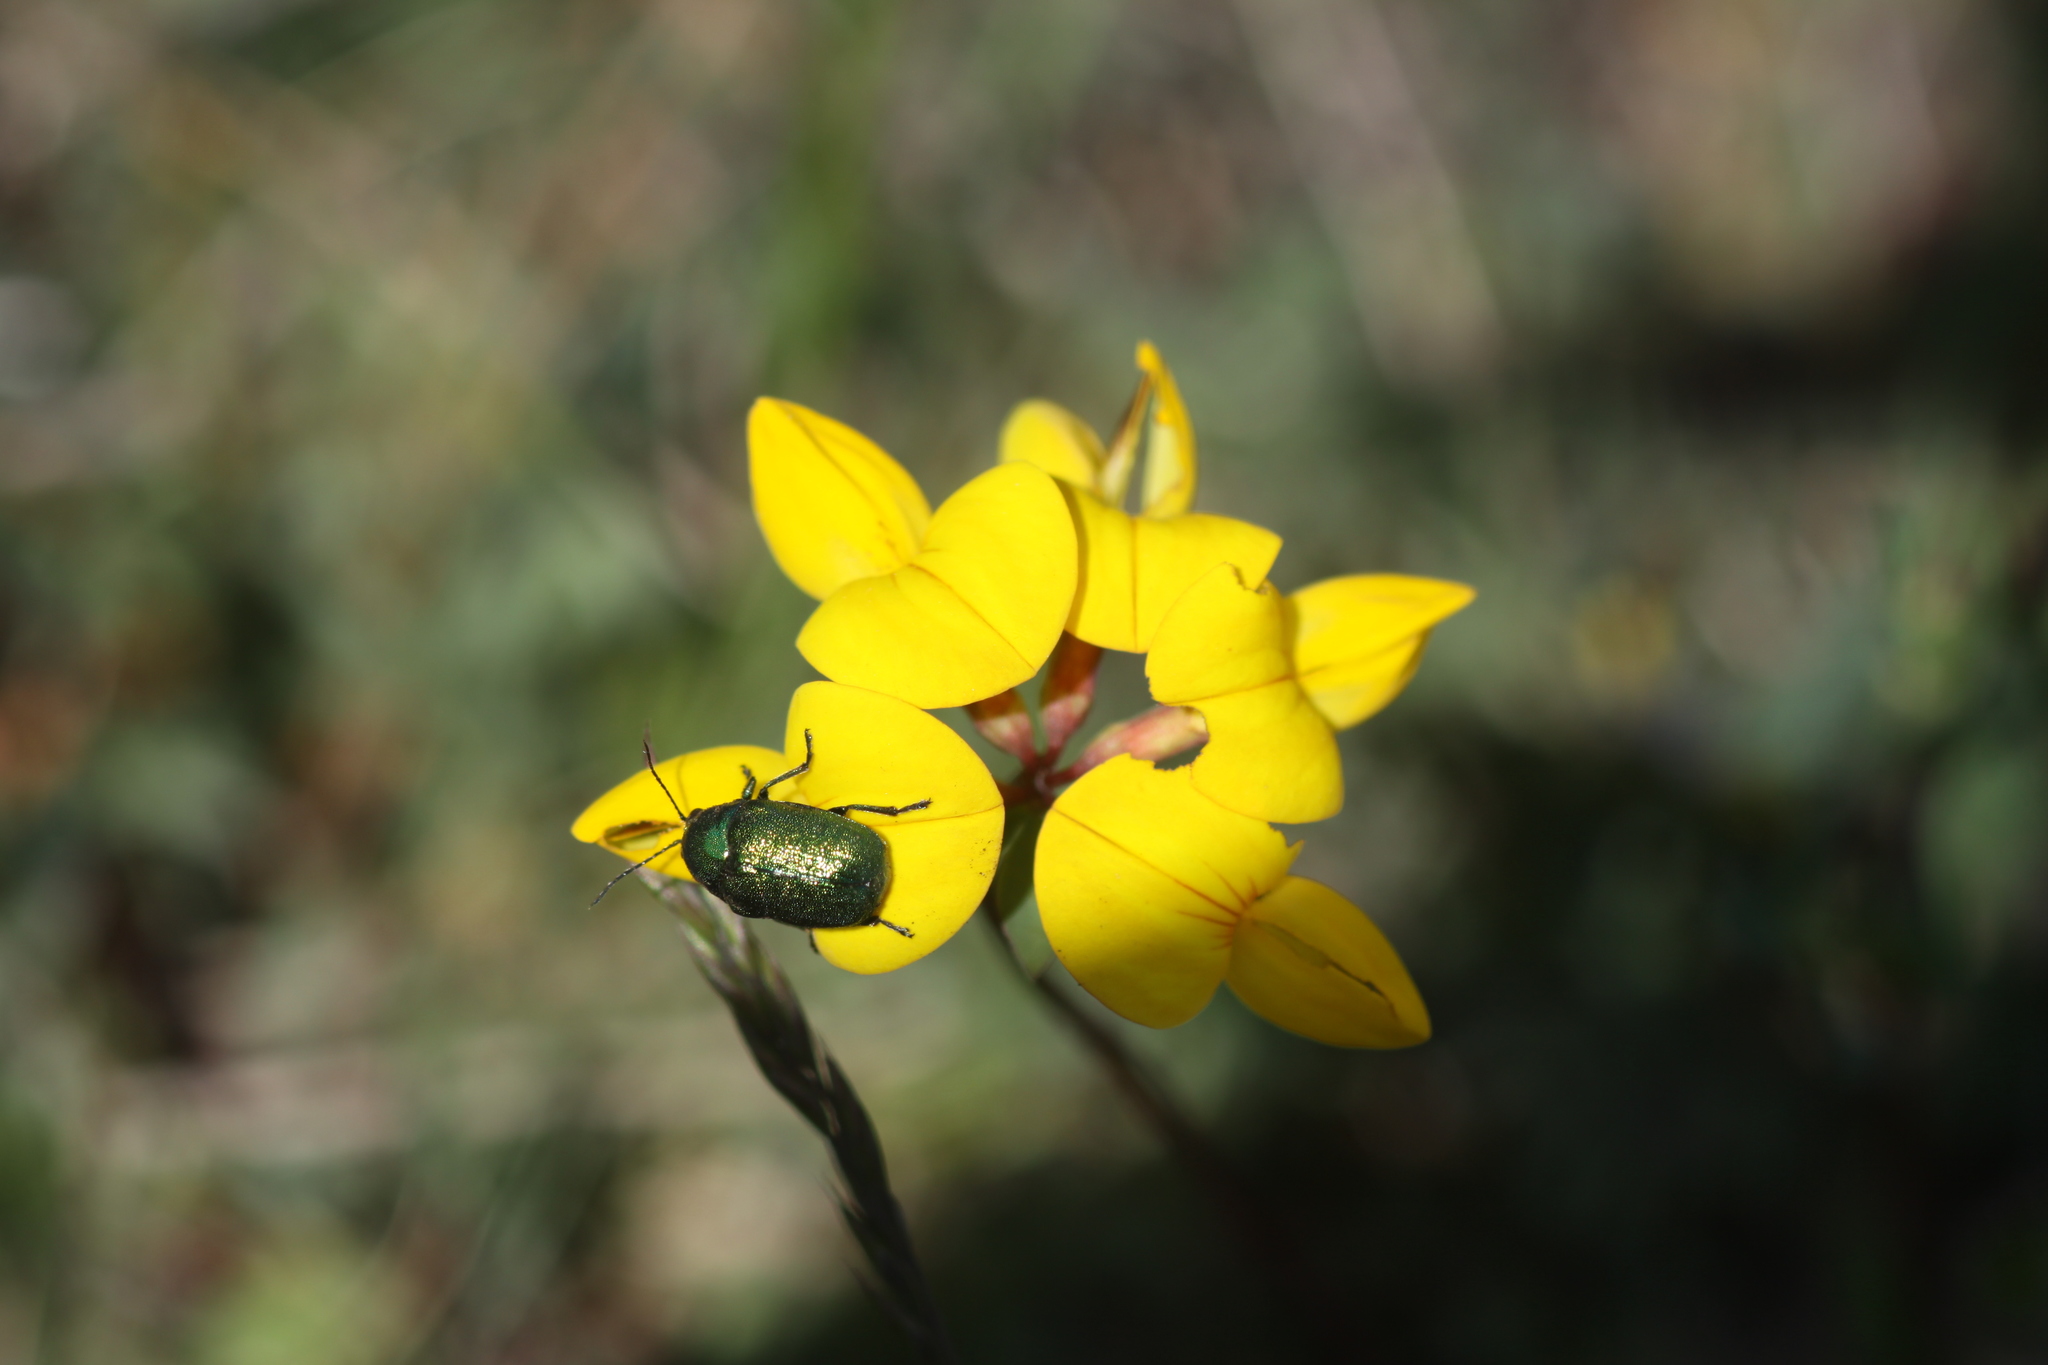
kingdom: Animalia
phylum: Arthropoda
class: Insecta
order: Coleoptera
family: Chrysomelidae
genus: Cryptocephalus
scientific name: Cryptocephalus
